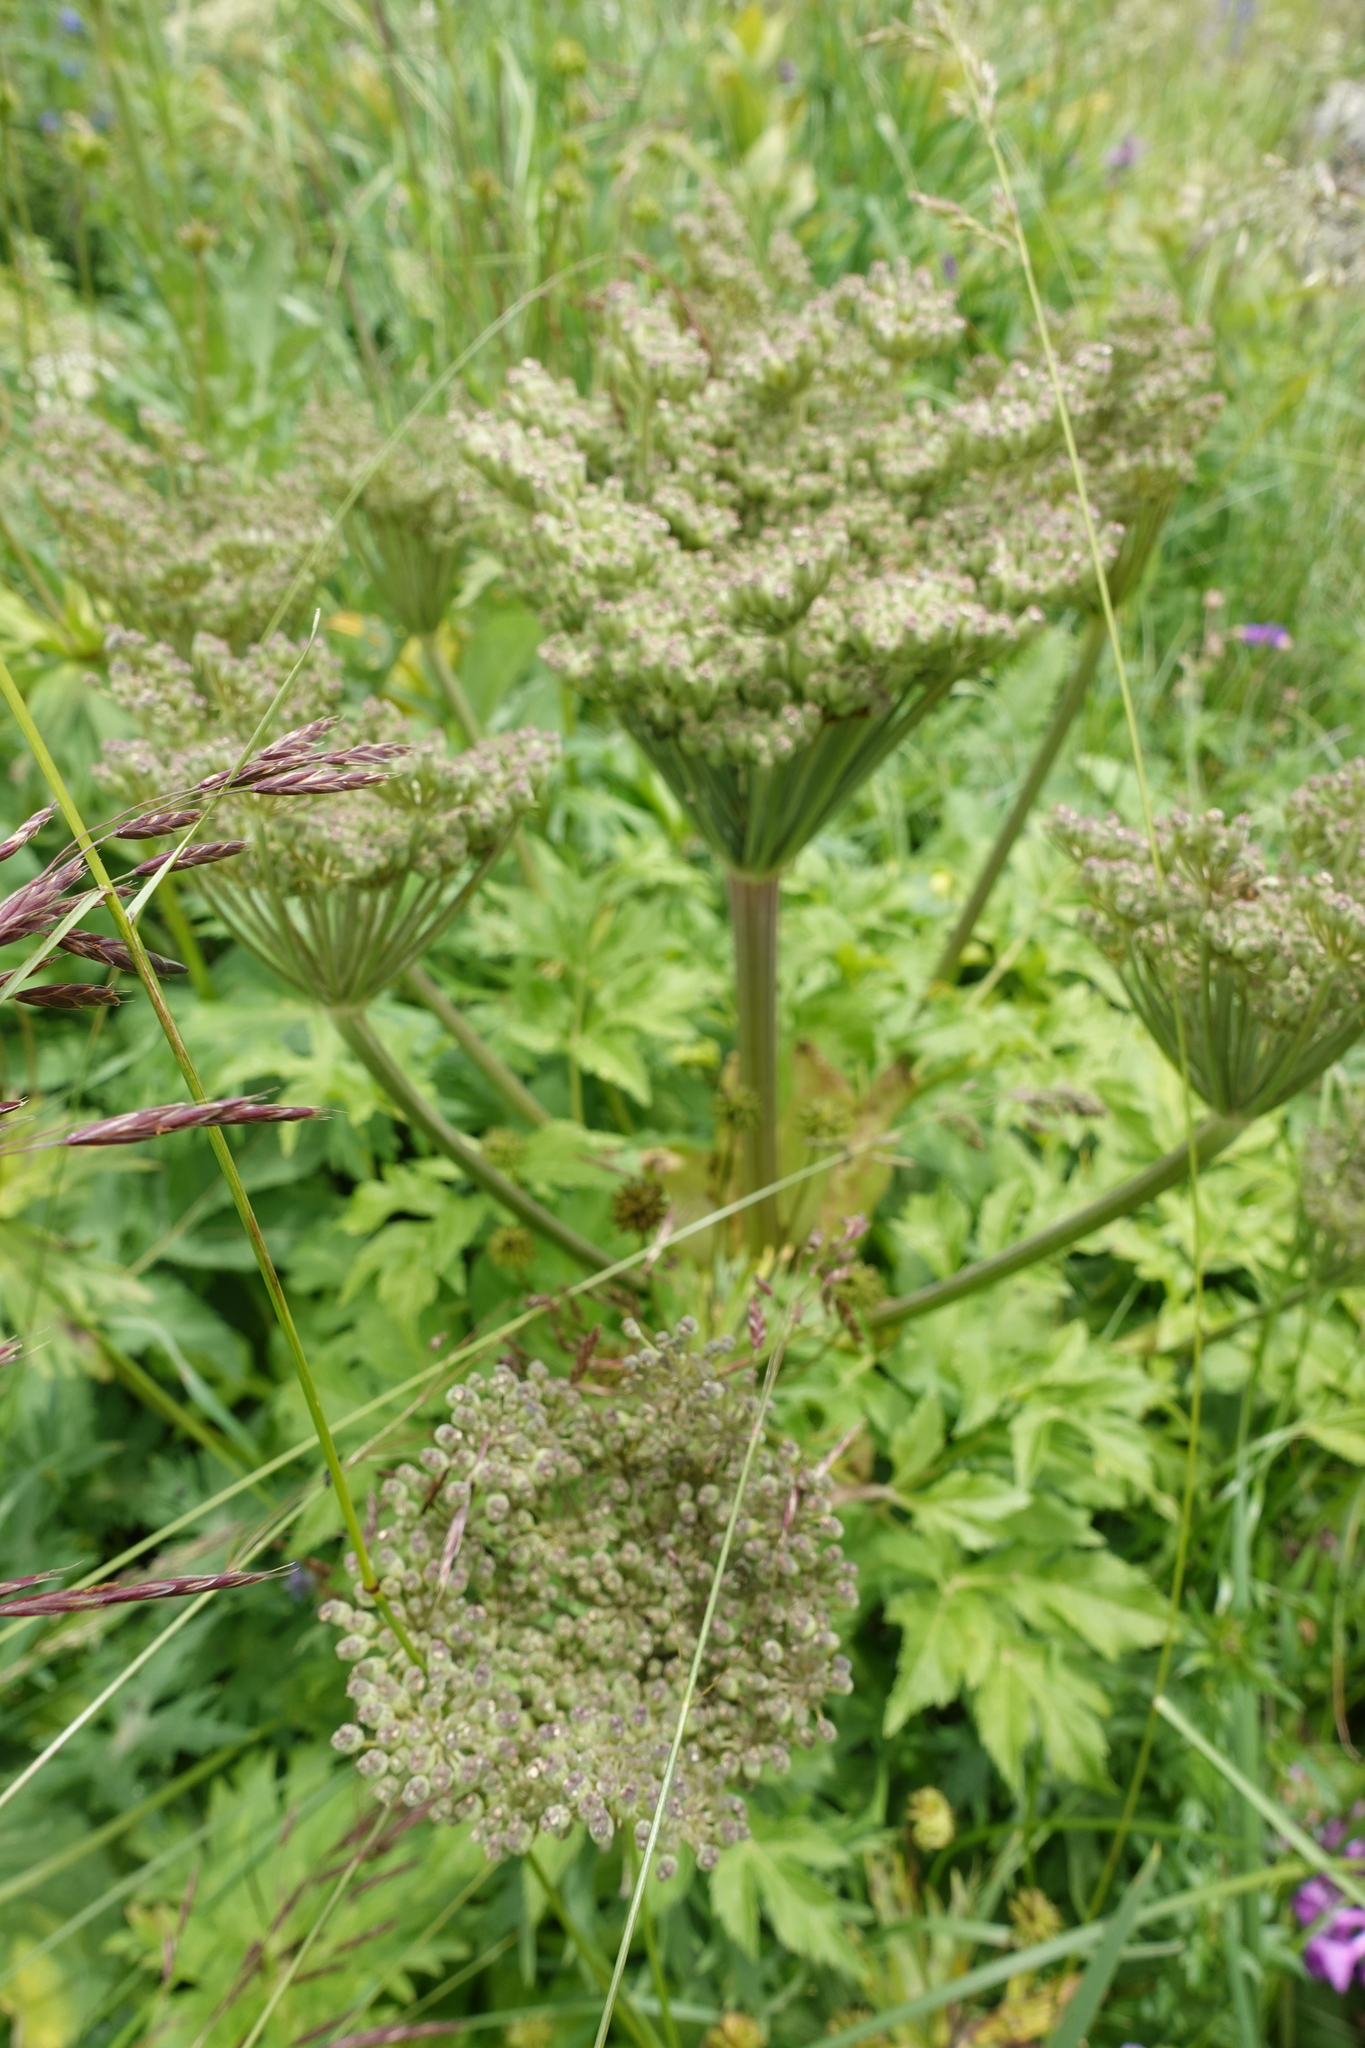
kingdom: Plantae
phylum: Tracheophyta
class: Magnoliopsida
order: Apiales
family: Apiaceae
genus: Agasyllis
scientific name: Agasyllis latifolia
